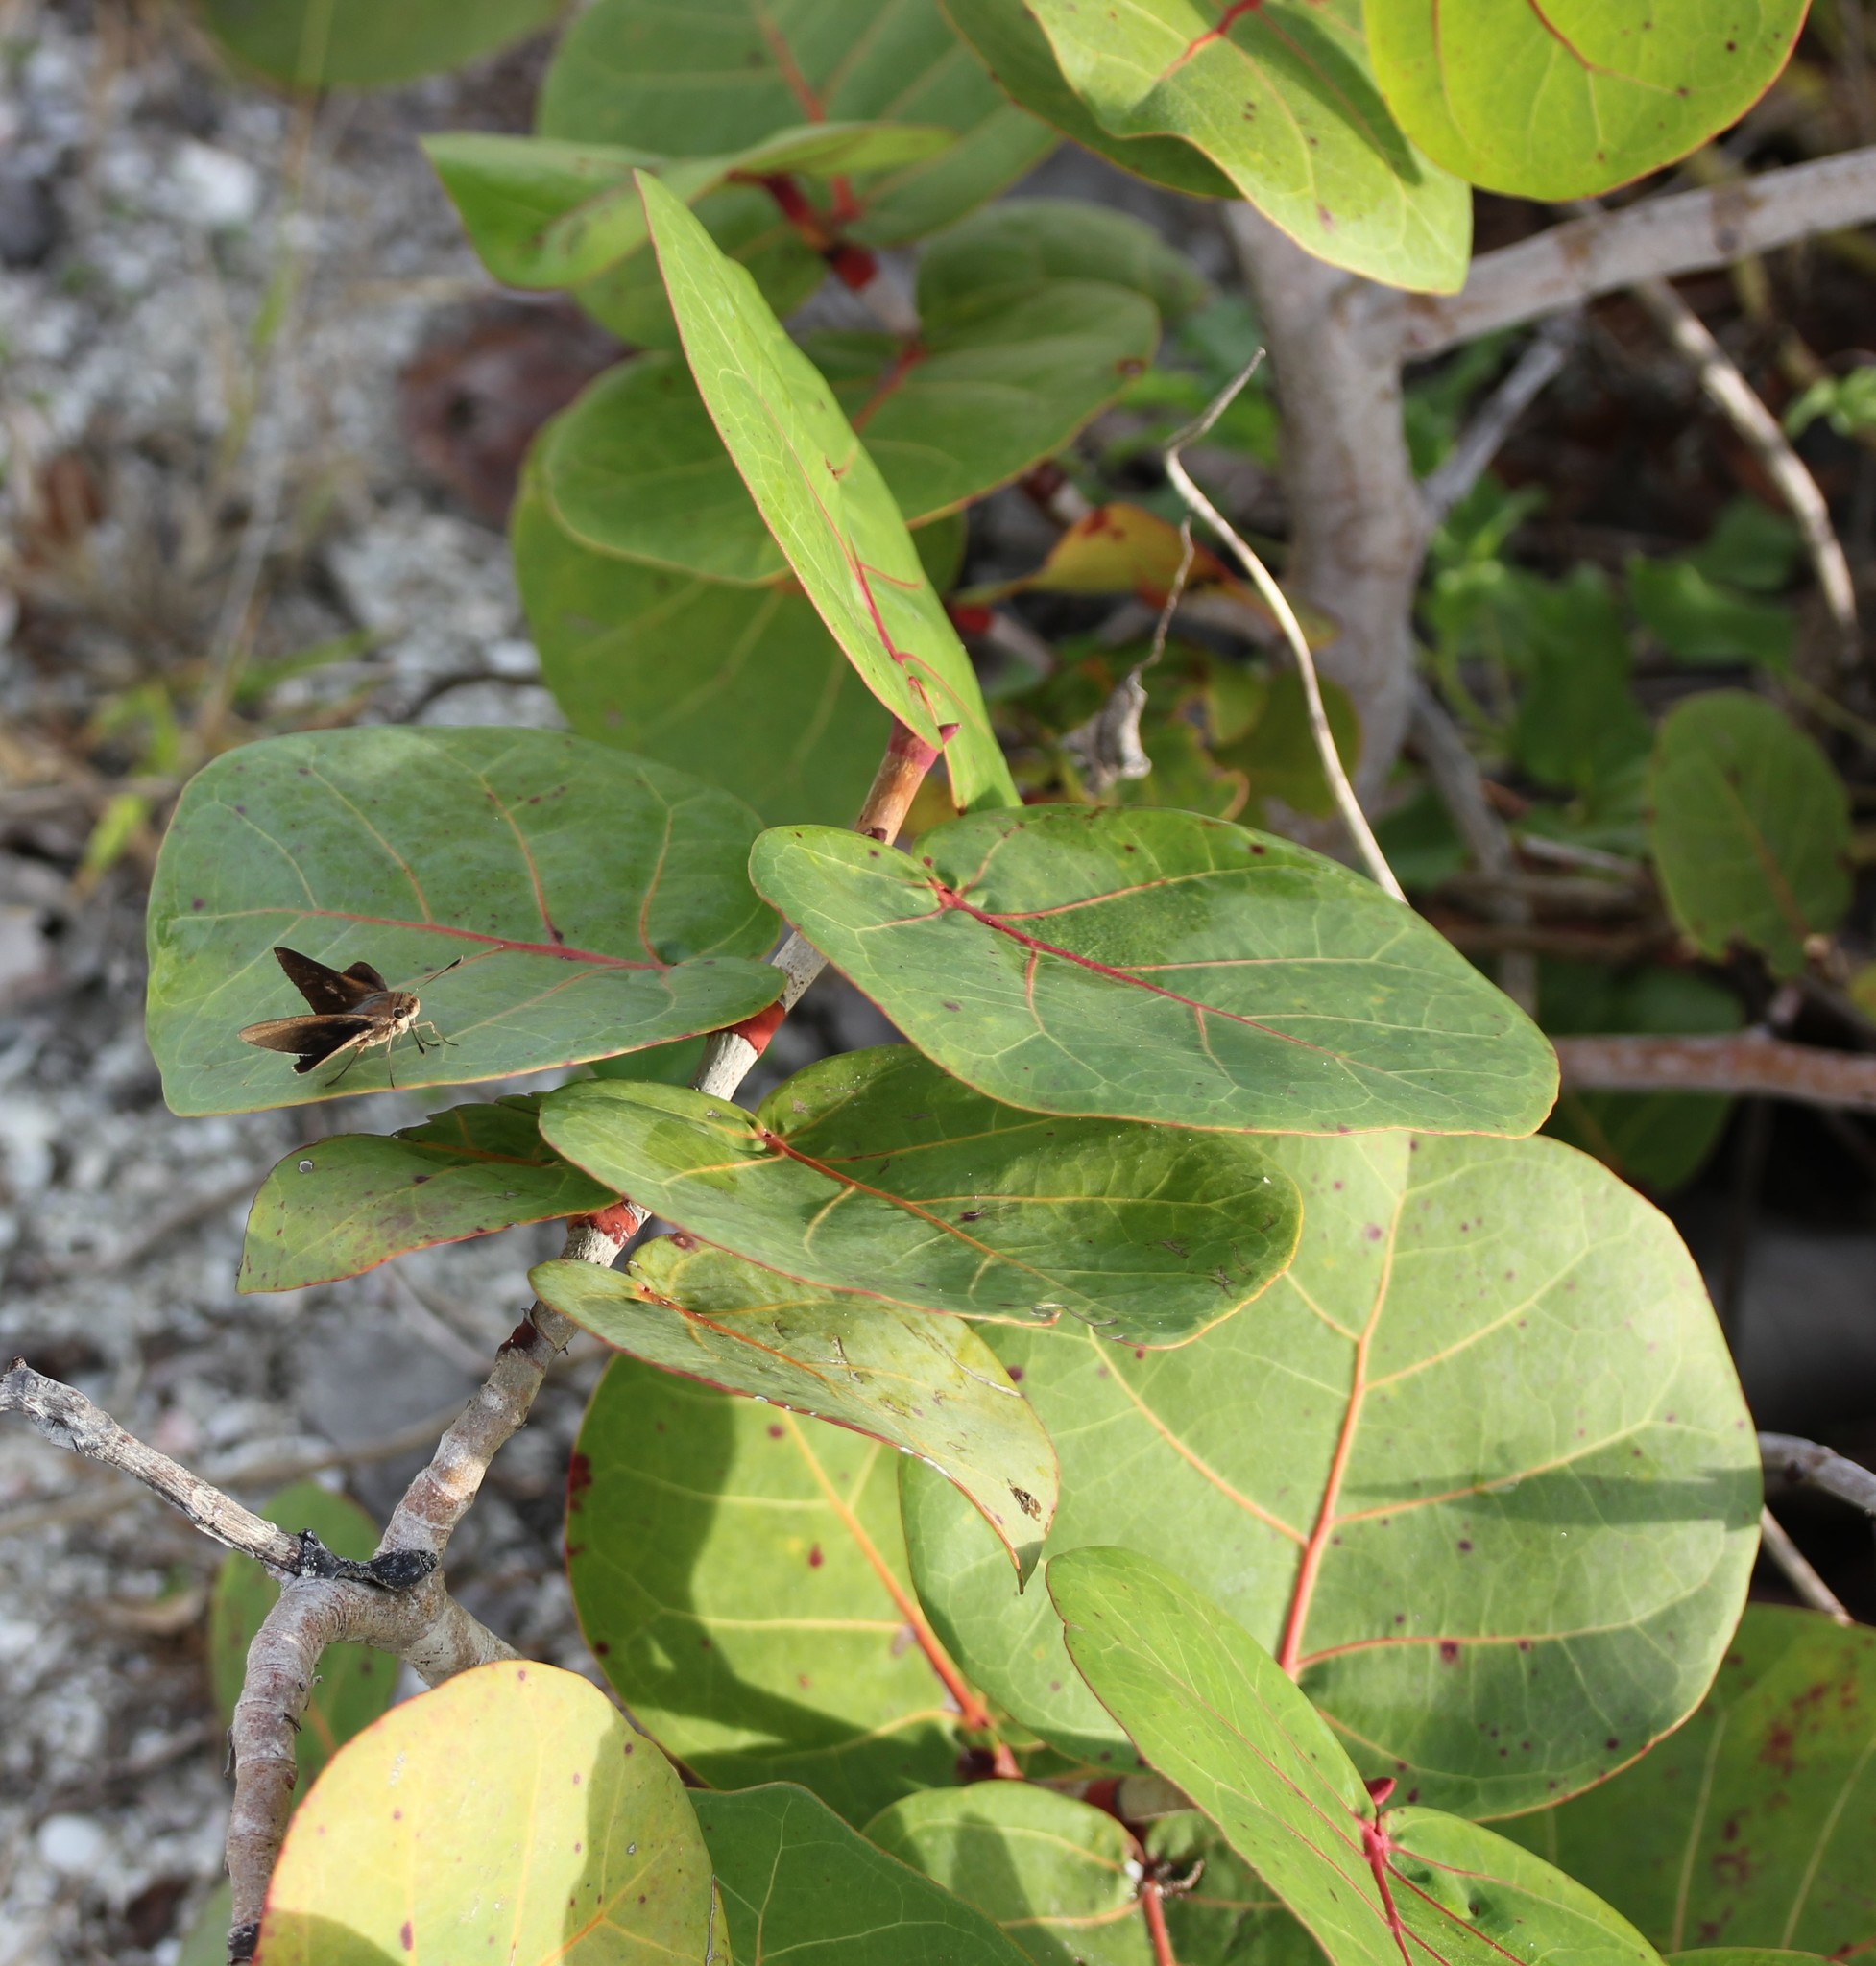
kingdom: Plantae
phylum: Tracheophyta
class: Magnoliopsida
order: Caryophyllales
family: Polygonaceae
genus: Coccoloba
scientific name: Coccoloba uvifera
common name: Seagrape
